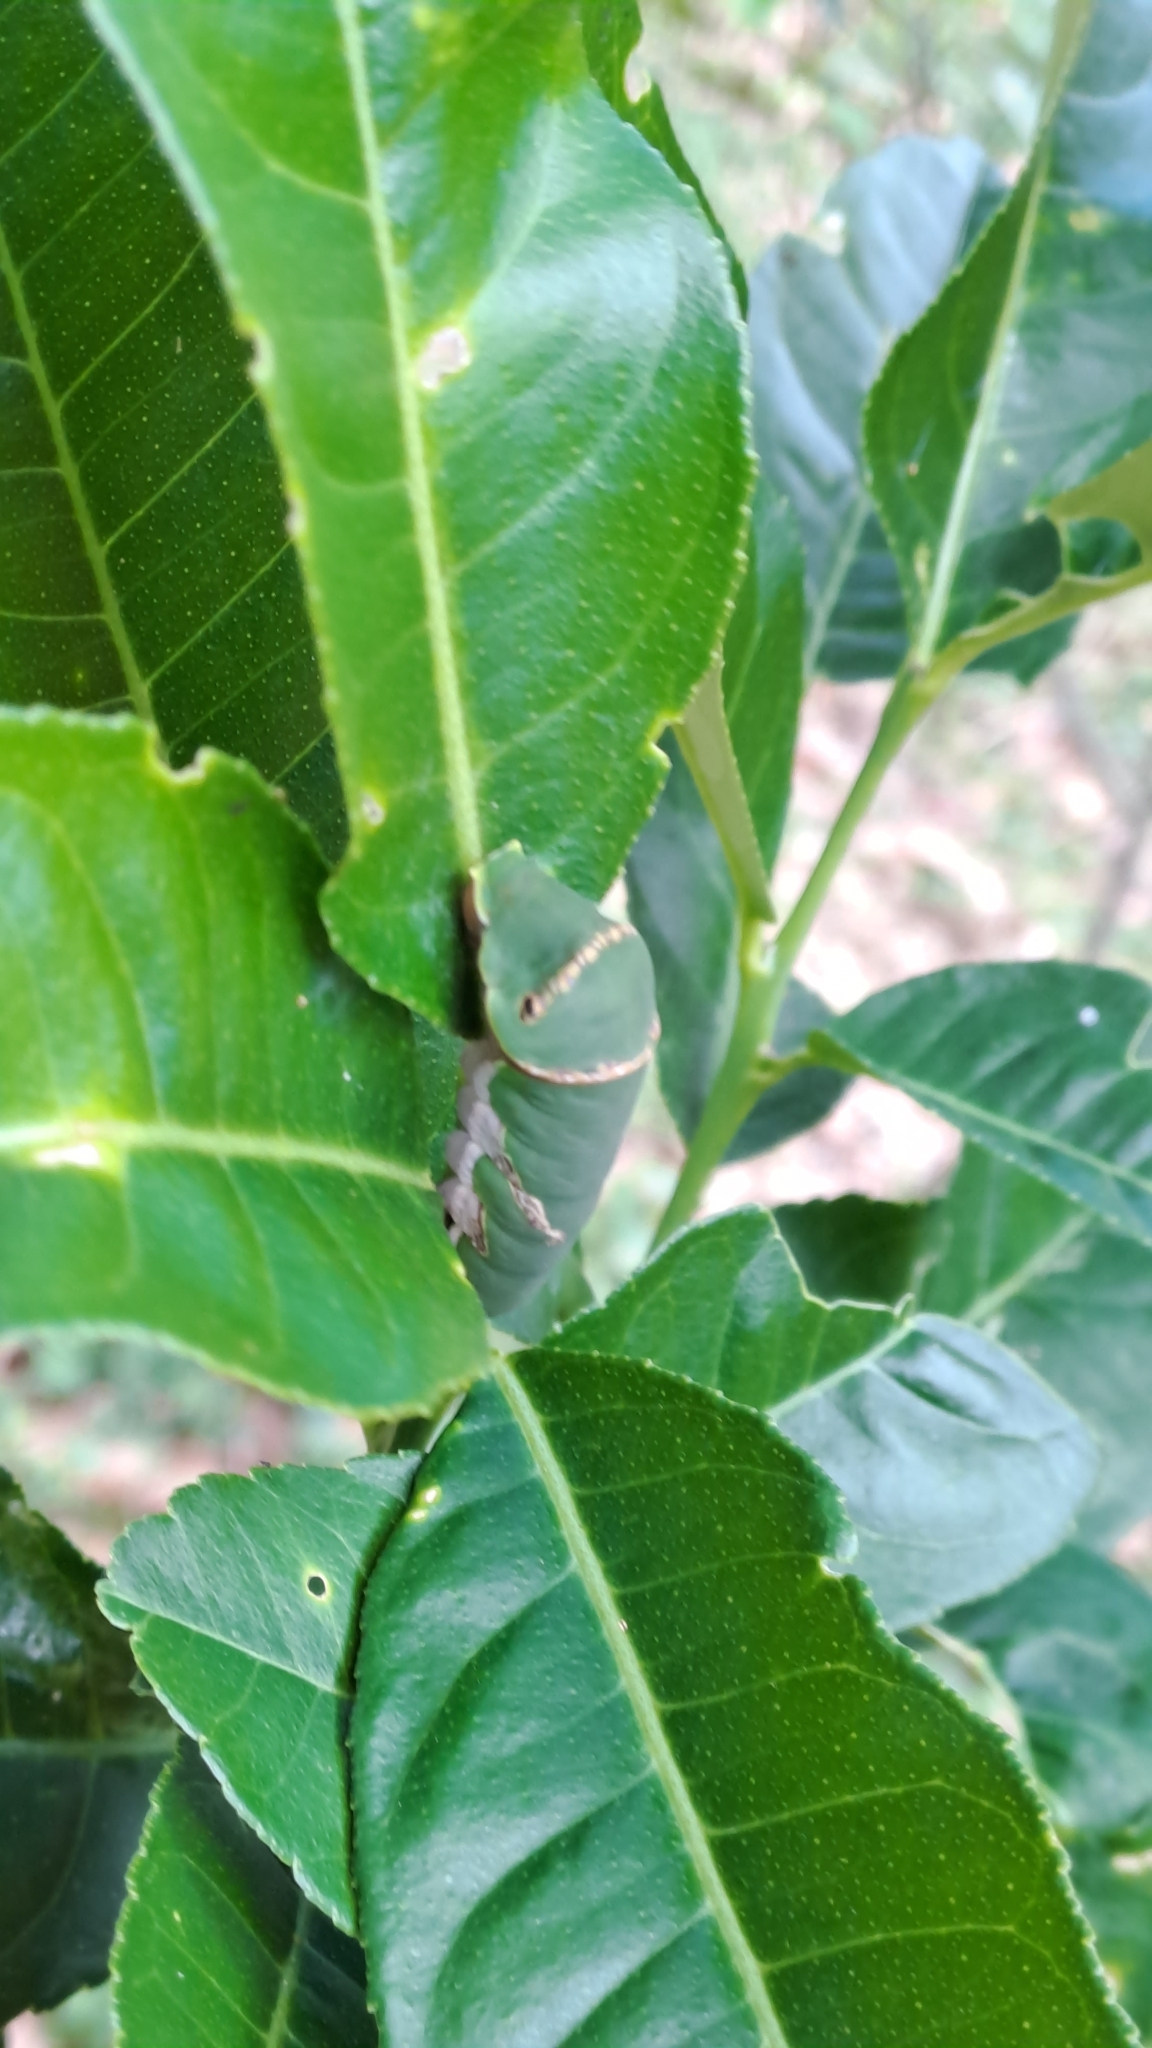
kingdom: Animalia
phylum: Arthropoda
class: Insecta
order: Lepidoptera
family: Papilionidae
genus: Papilio
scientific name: Papilio polytes
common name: Common mormon
